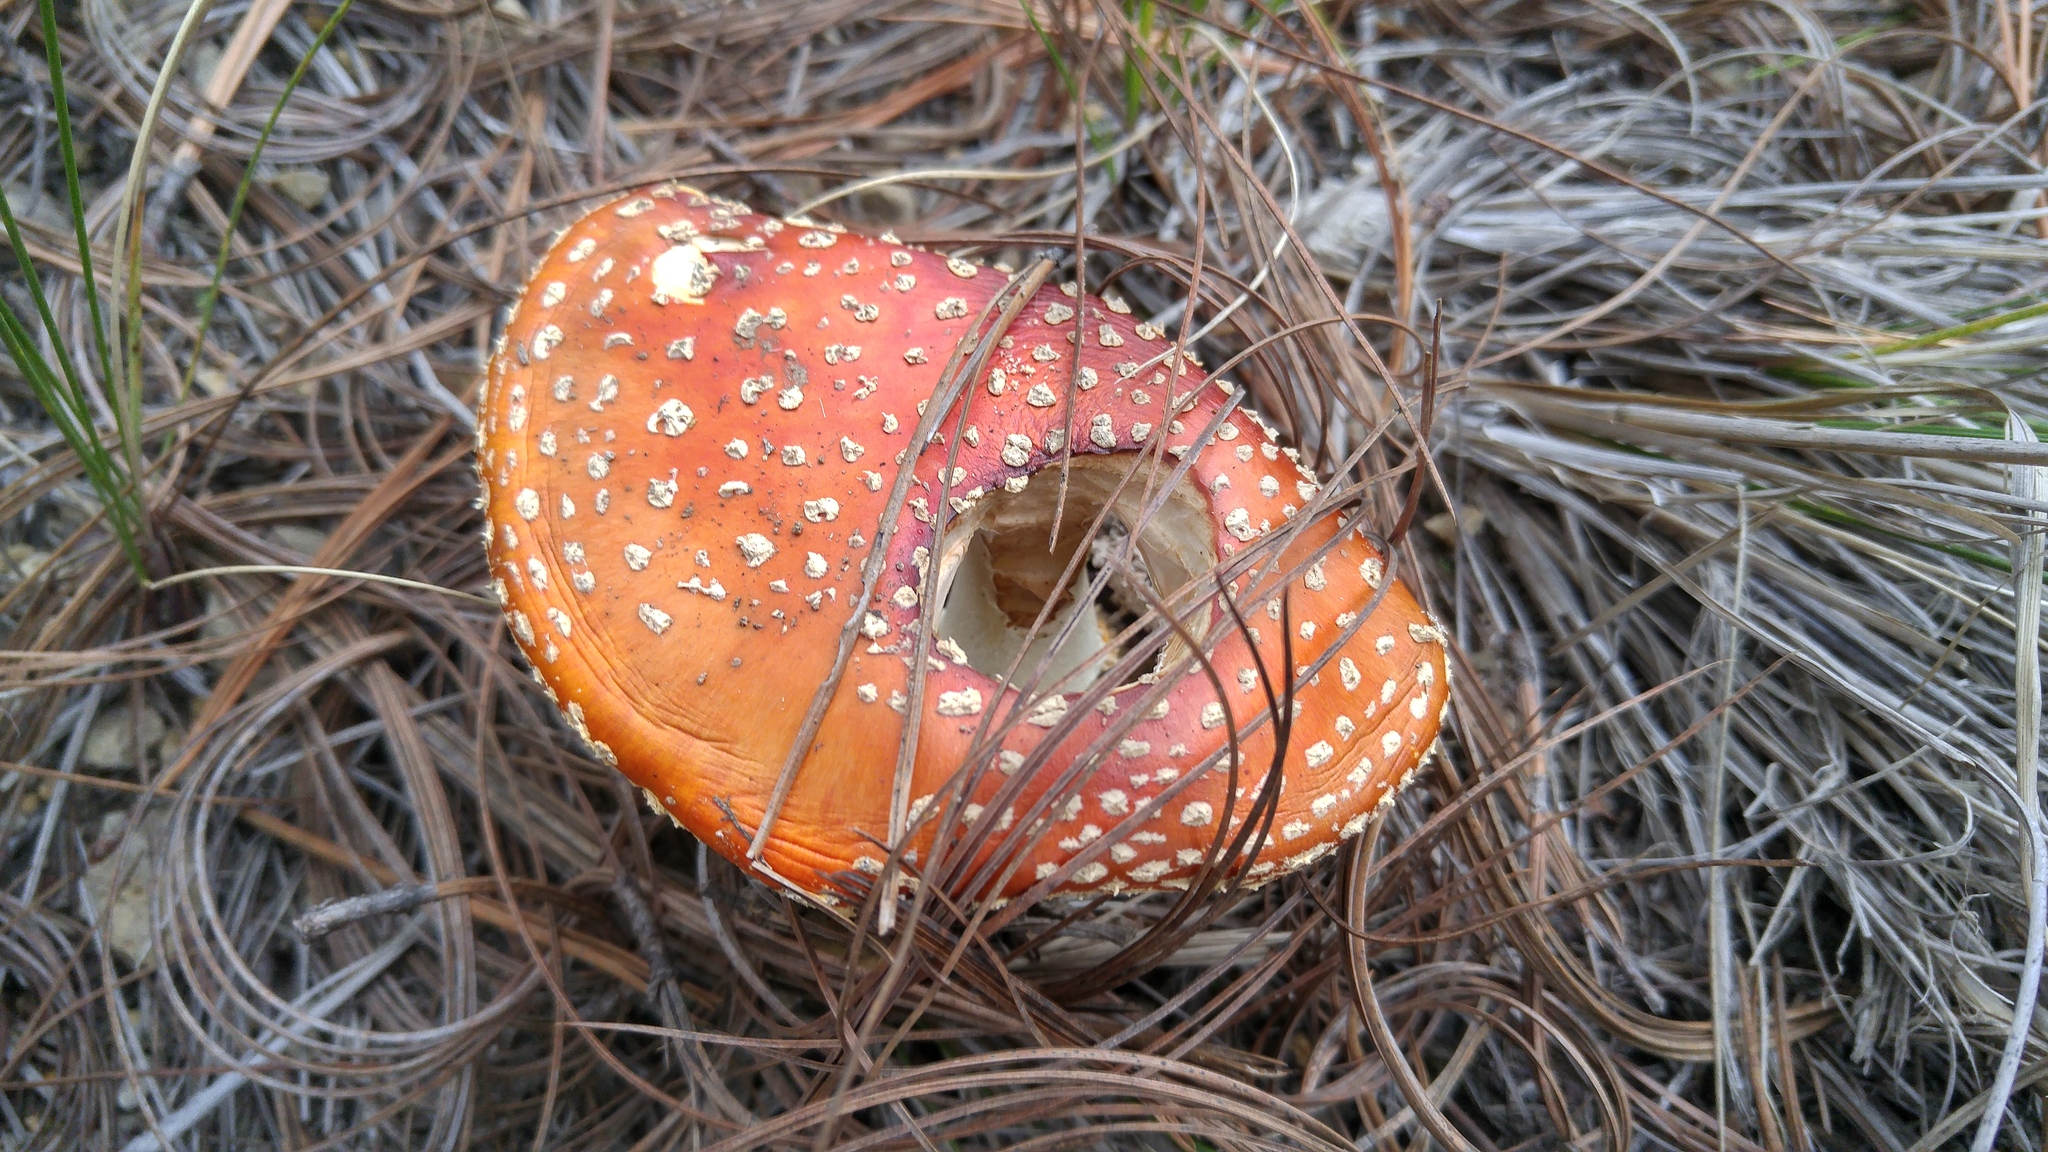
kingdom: Fungi
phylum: Basidiomycota
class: Agaricomycetes
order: Agaricales
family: Amanitaceae
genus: Amanita
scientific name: Amanita muscaria
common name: Fly agaric
